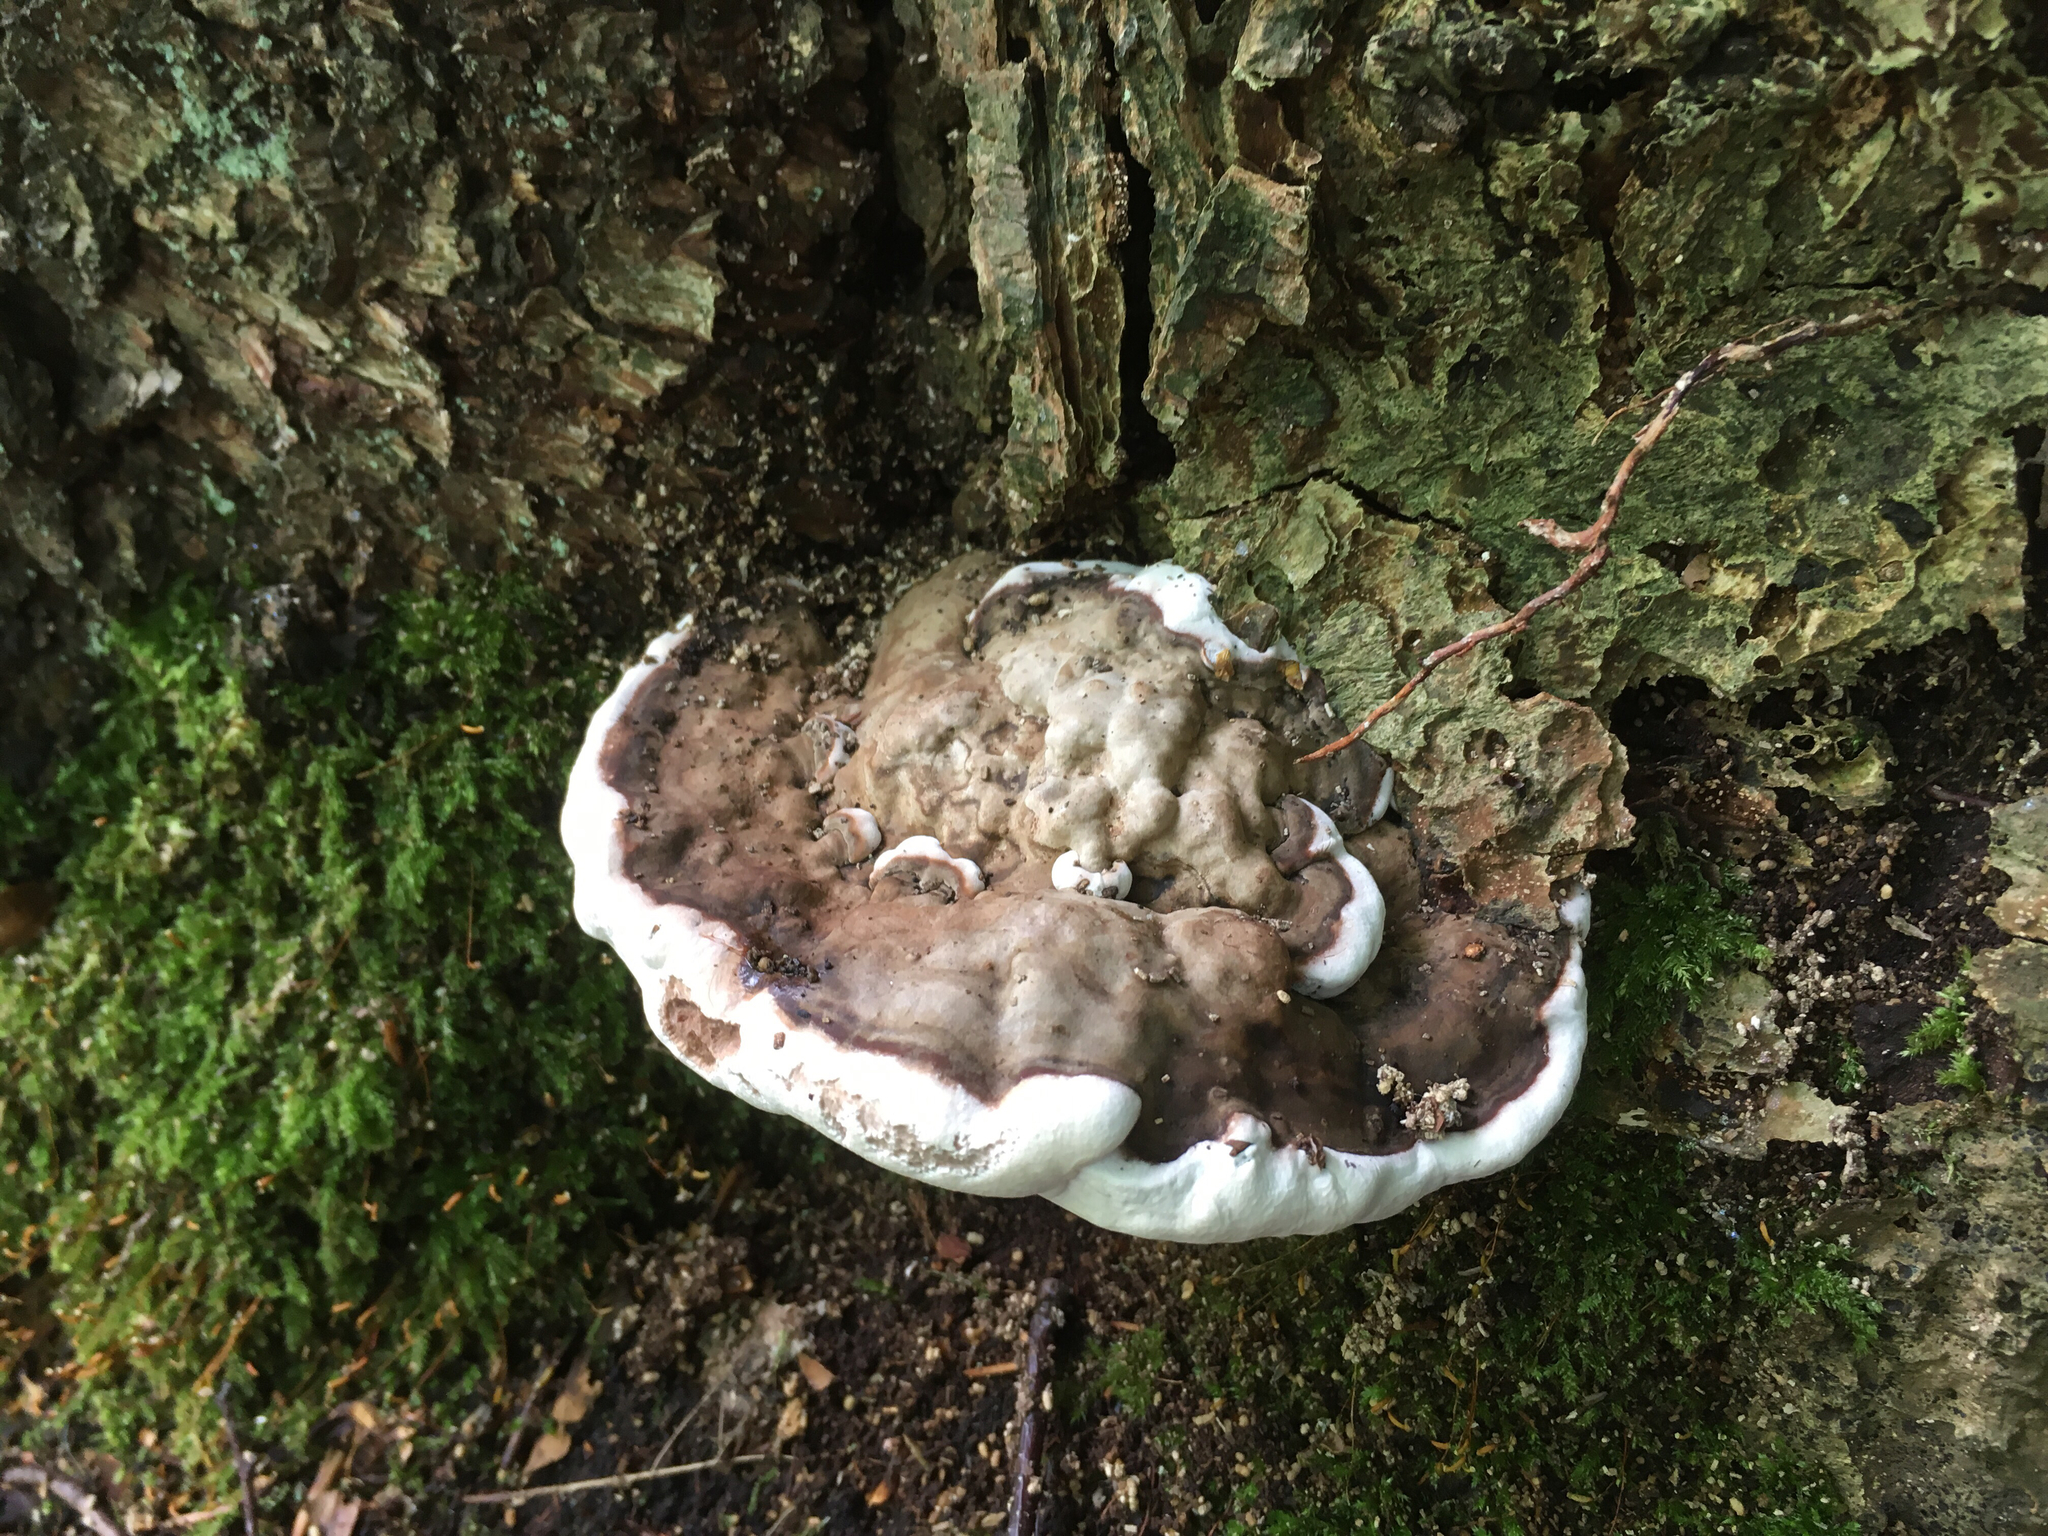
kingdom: Fungi
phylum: Basidiomycota
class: Agaricomycetes
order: Polyporales
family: Polyporaceae
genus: Ganoderma
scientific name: Ganoderma applanatum
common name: Artist's bracket
